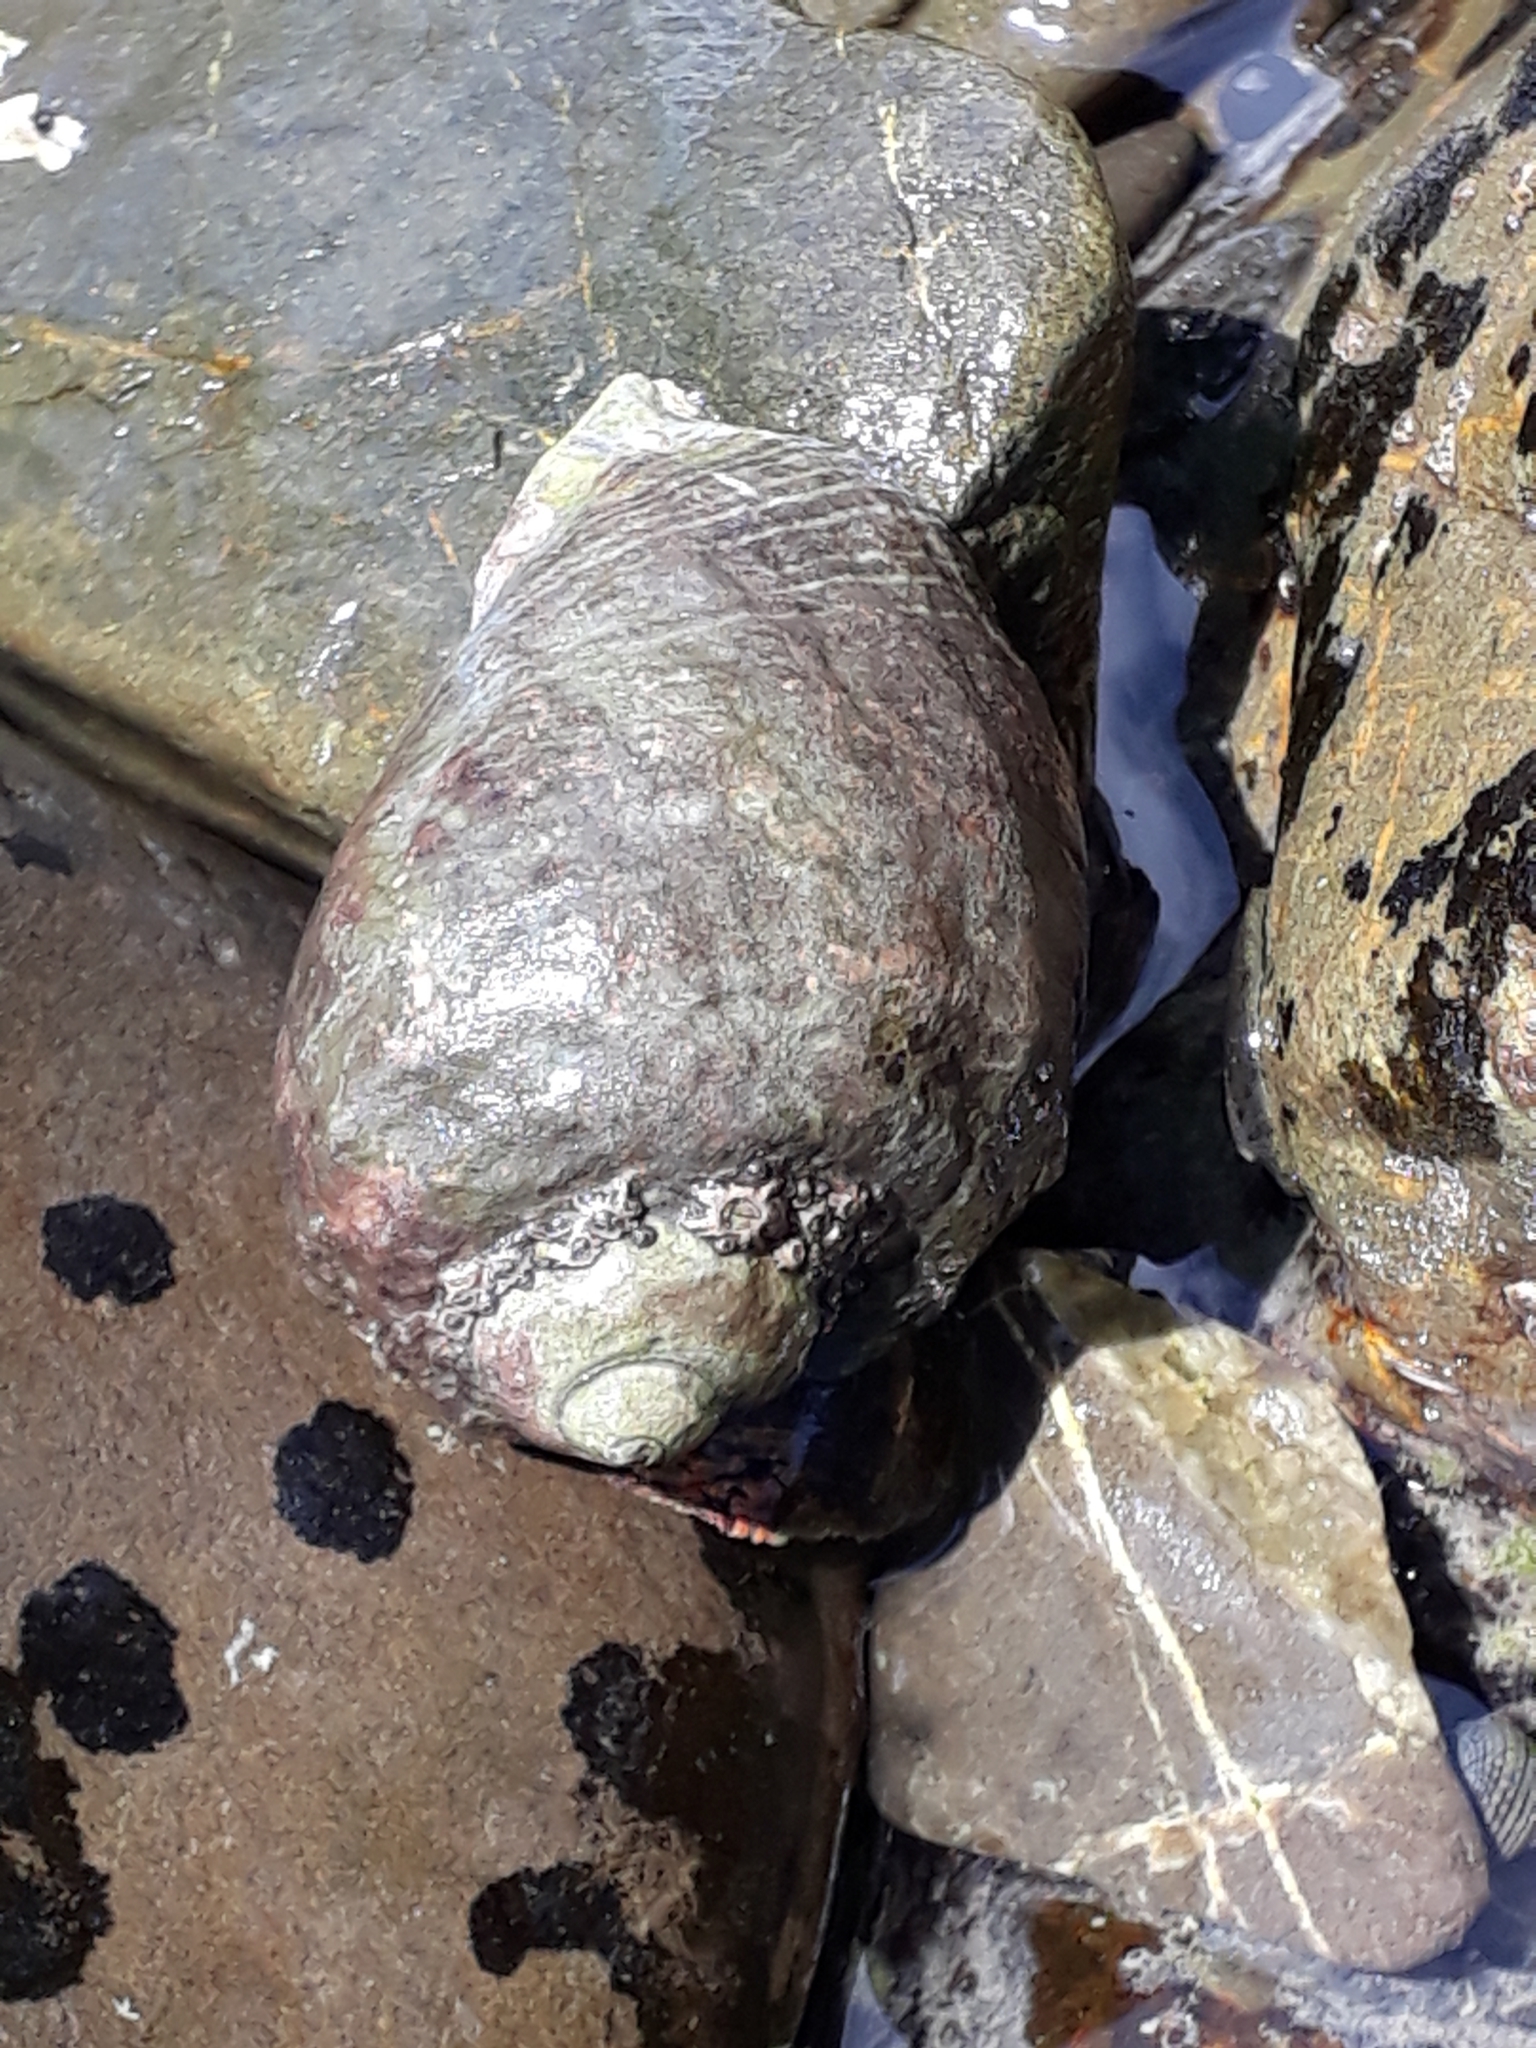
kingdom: Animalia
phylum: Mollusca
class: Gastropoda
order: Neogastropoda
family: Muricidae
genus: Haustrum
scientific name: Haustrum haustorium
